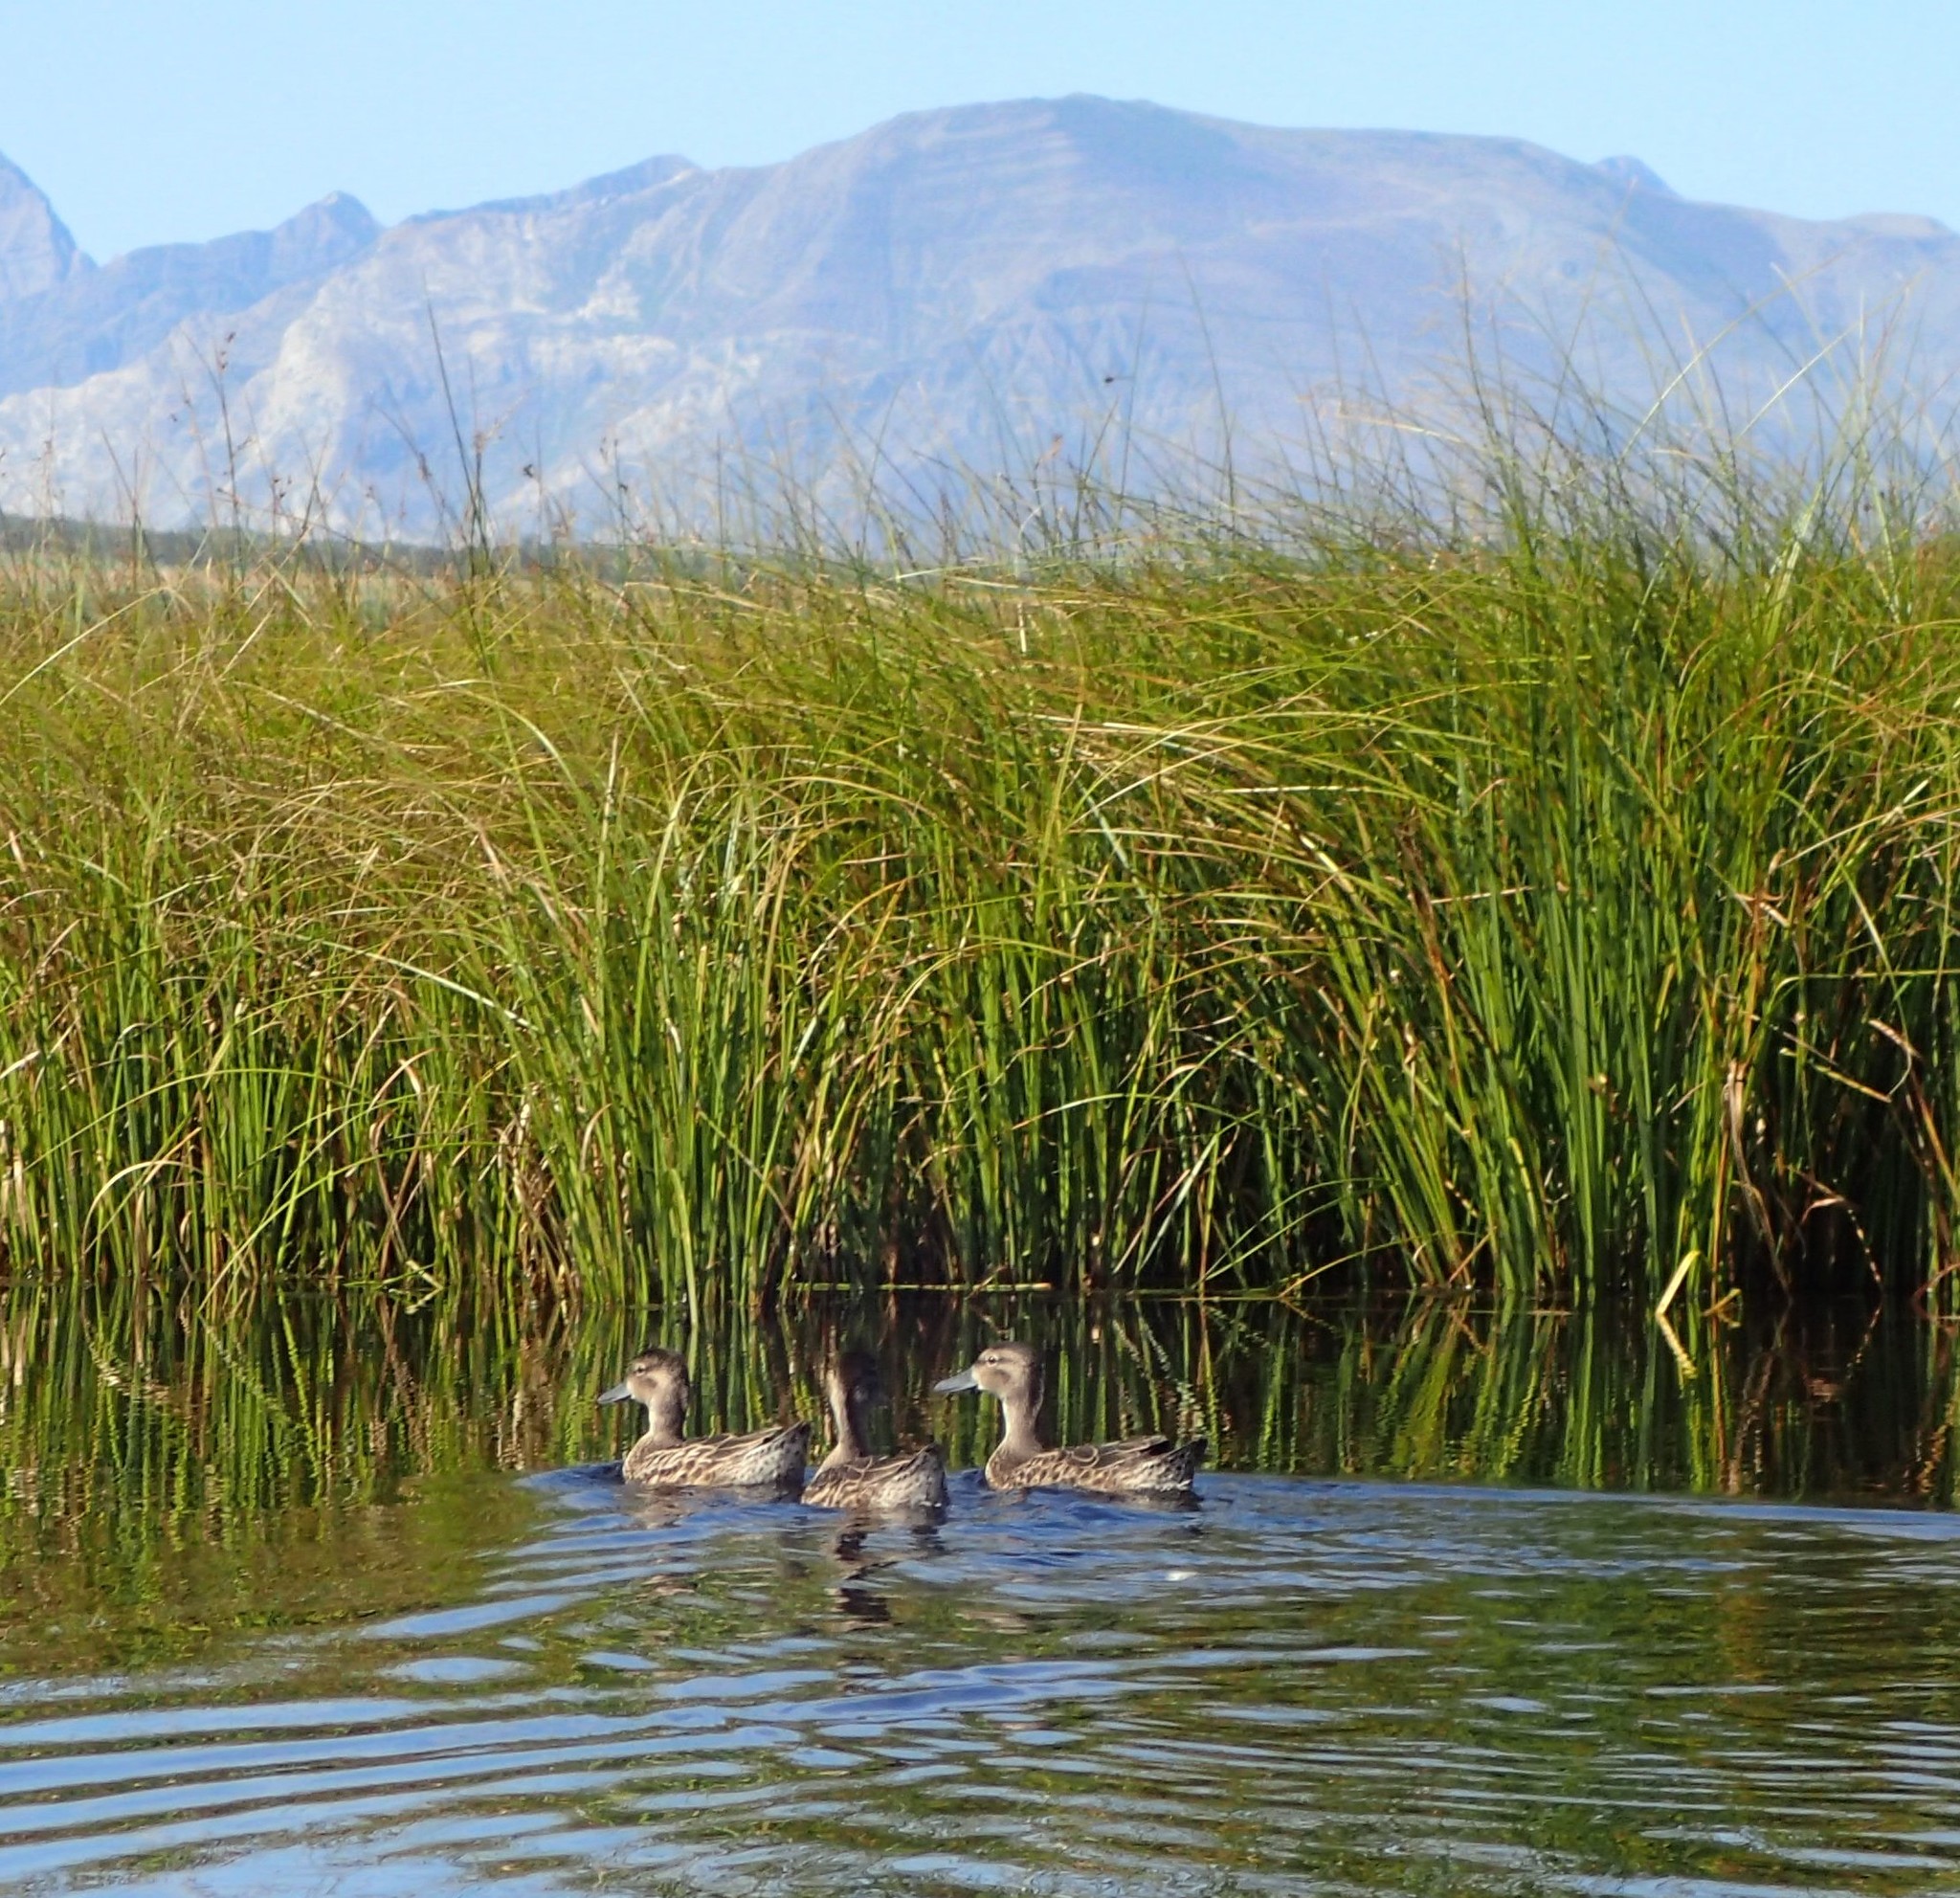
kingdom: Animalia
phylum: Chordata
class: Aves
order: Anseriformes
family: Anatidae
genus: Anas
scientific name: Anas platyrhynchos
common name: Mallard
